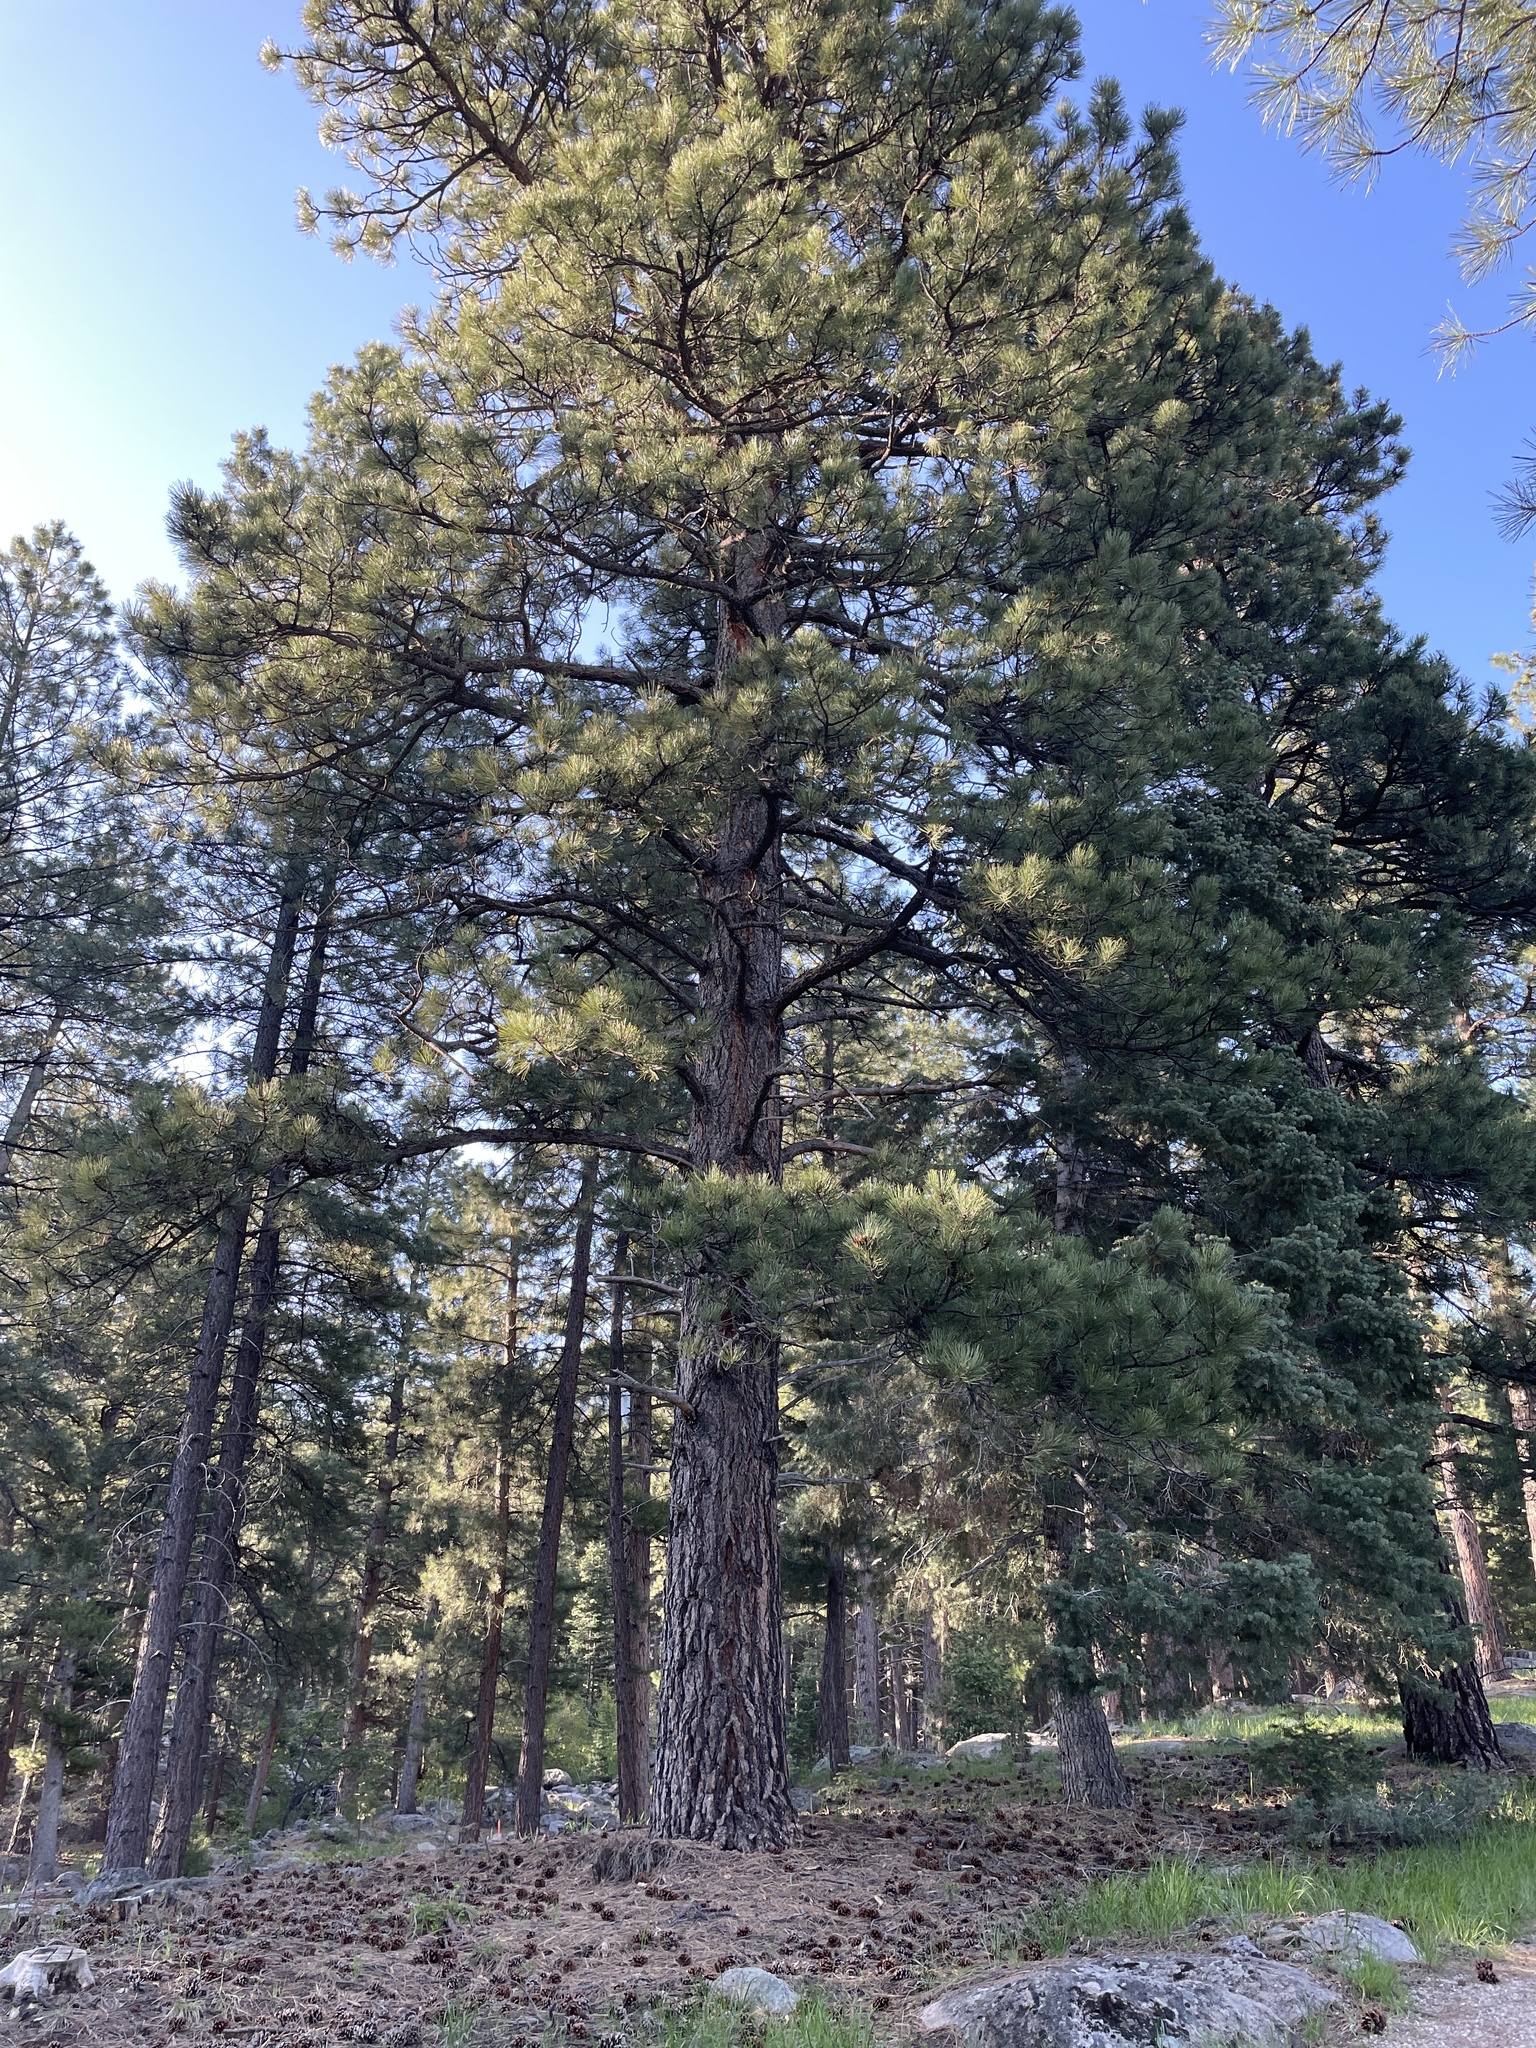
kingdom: Plantae
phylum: Tracheophyta
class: Pinopsida
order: Pinales
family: Pinaceae
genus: Pinus
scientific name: Pinus ponderosa
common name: Western yellow-pine
